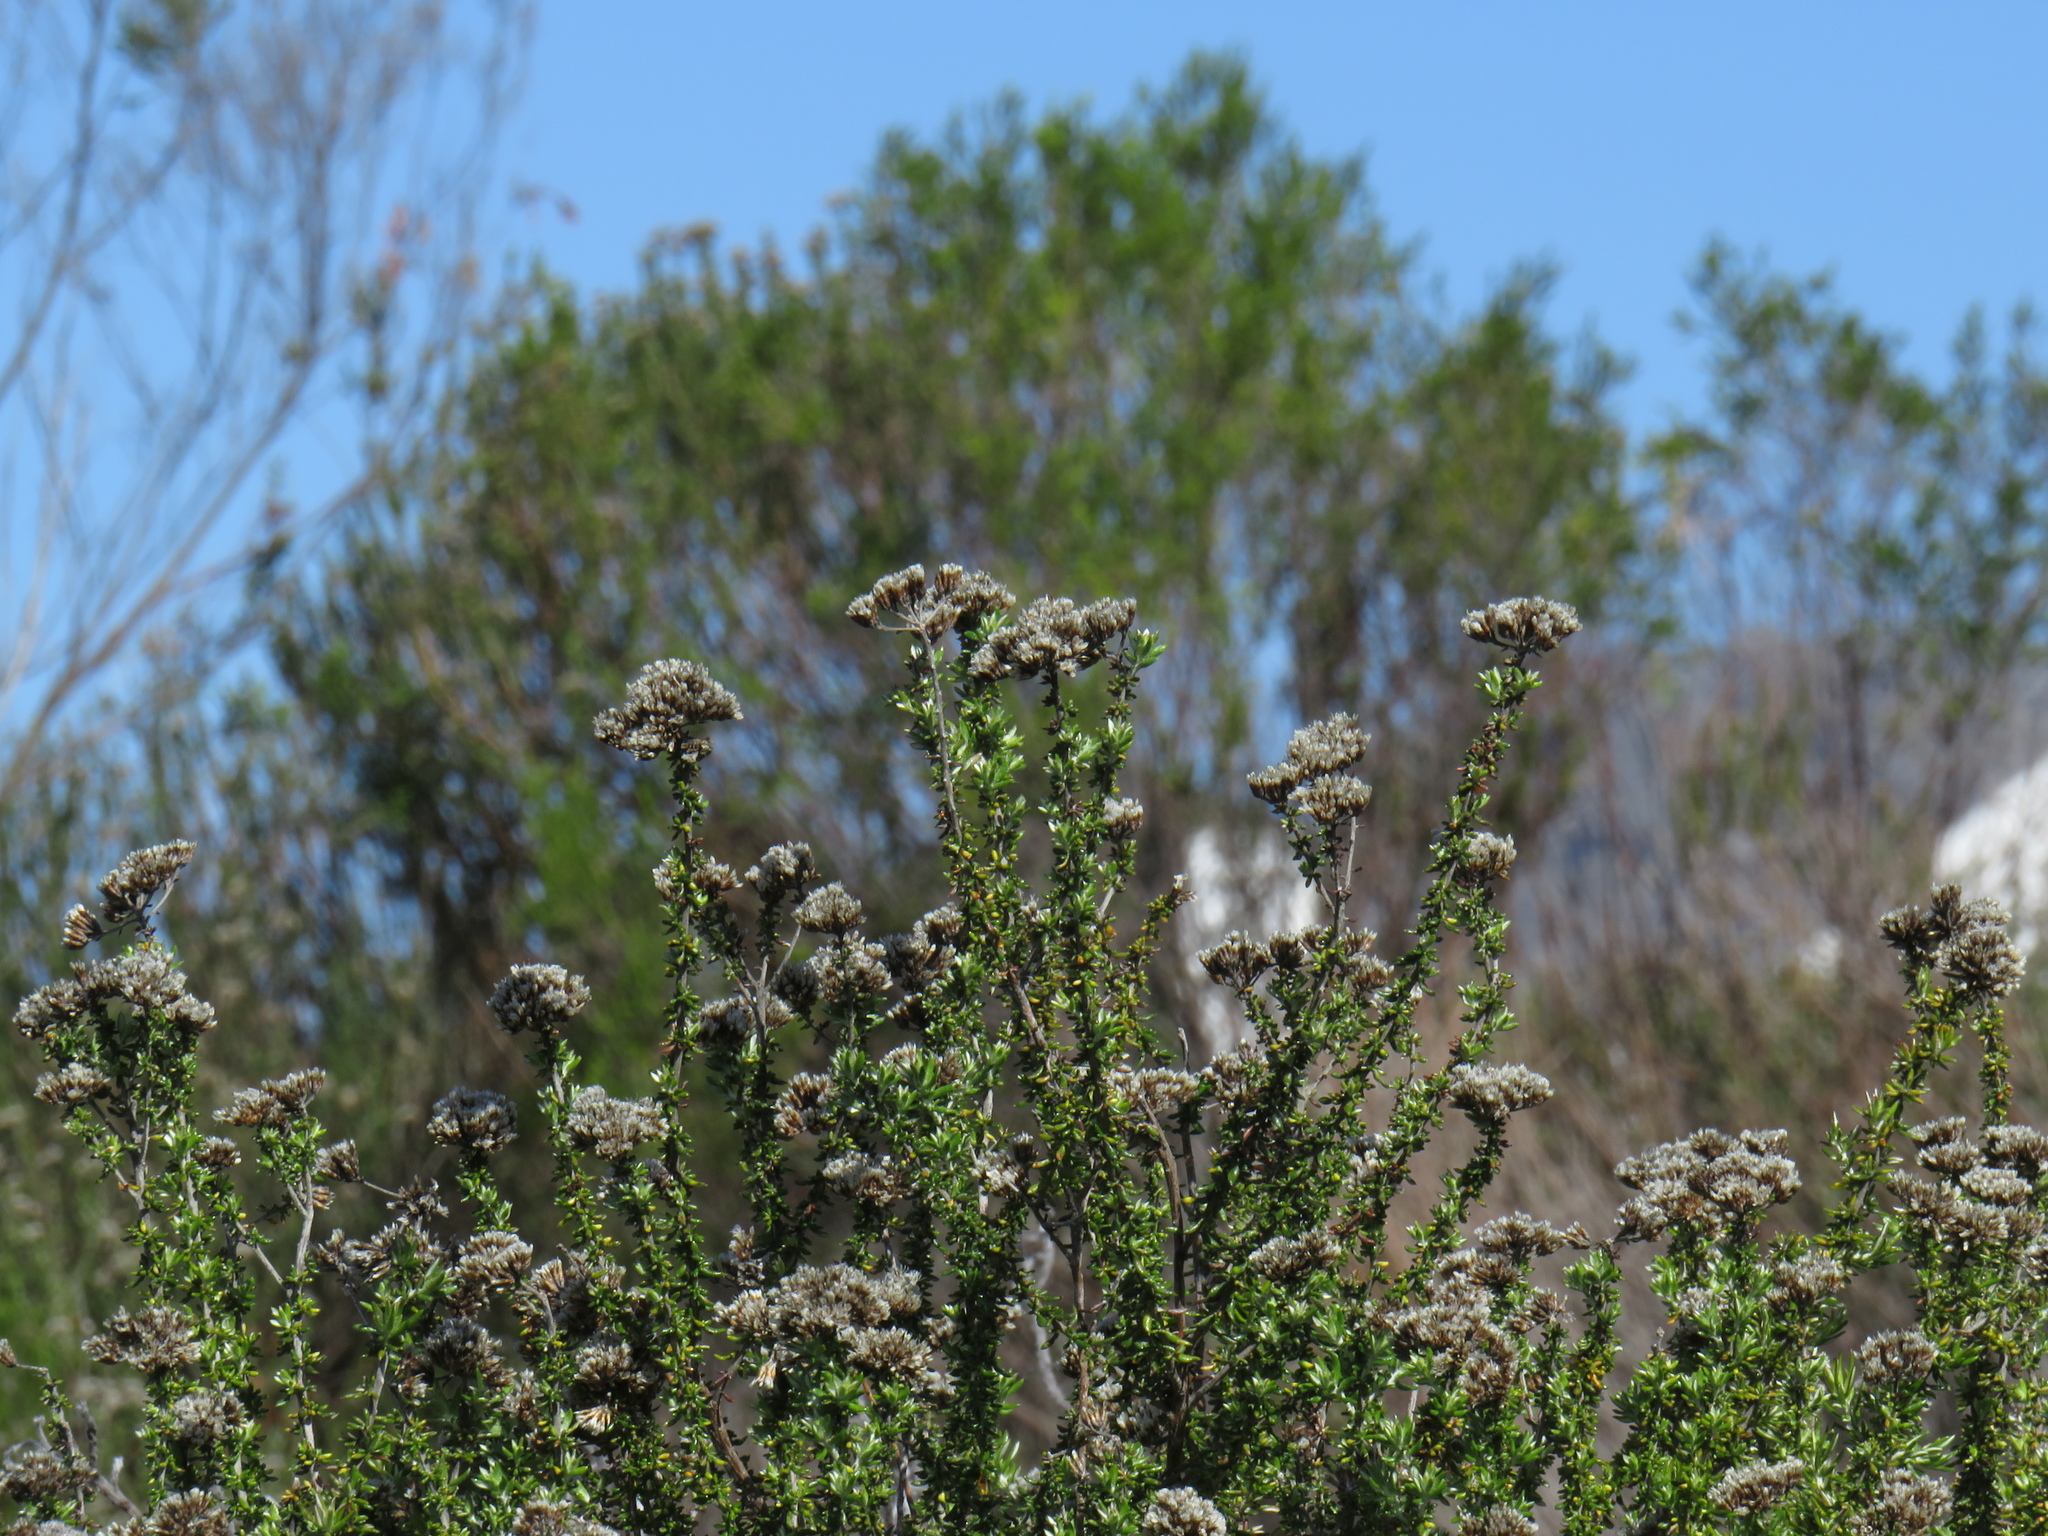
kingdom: Plantae
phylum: Tracheophyta
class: Magnoliopsida
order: Asterales
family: Asteraceae
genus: Metalasia
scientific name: Metalasia densa
